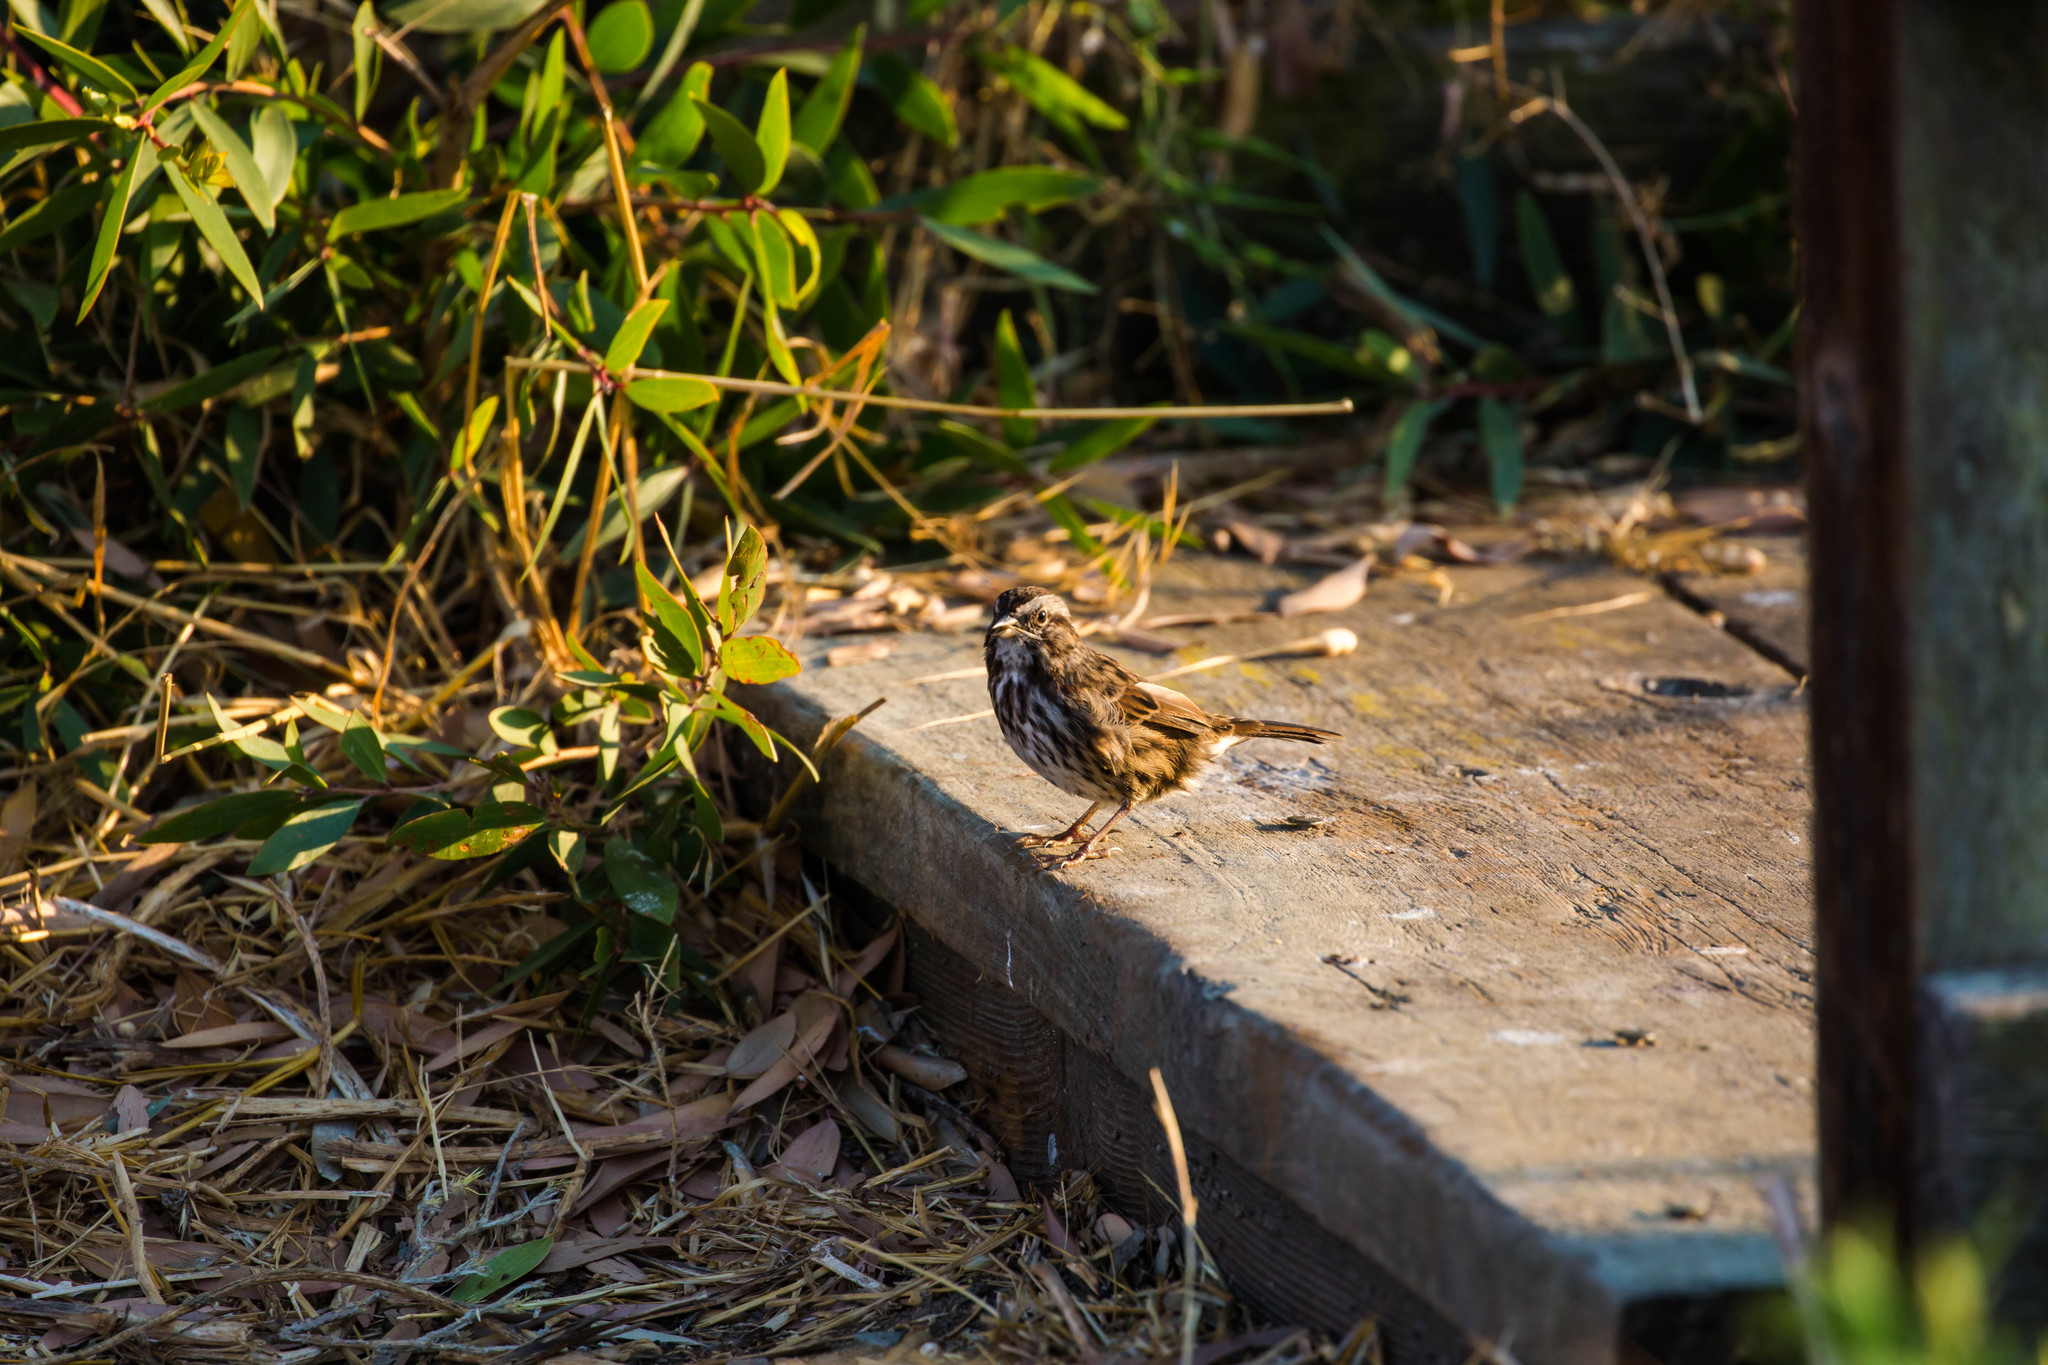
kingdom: Animalia
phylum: Chordata
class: Aves
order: Passeriformes
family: Passerellidae
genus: Melospiza
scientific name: Melospiza melodia
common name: Song sparrow
